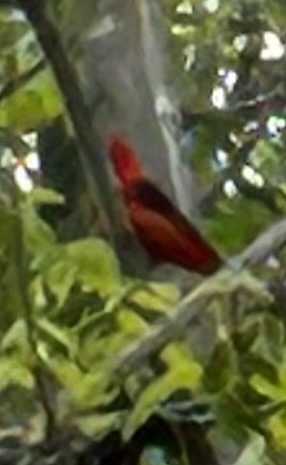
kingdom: Animalia
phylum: Chordata
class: Aves
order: Passeriformes
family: Cardinalidae
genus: Piranga
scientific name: Piranga olivacea
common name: Scarlet tanager
